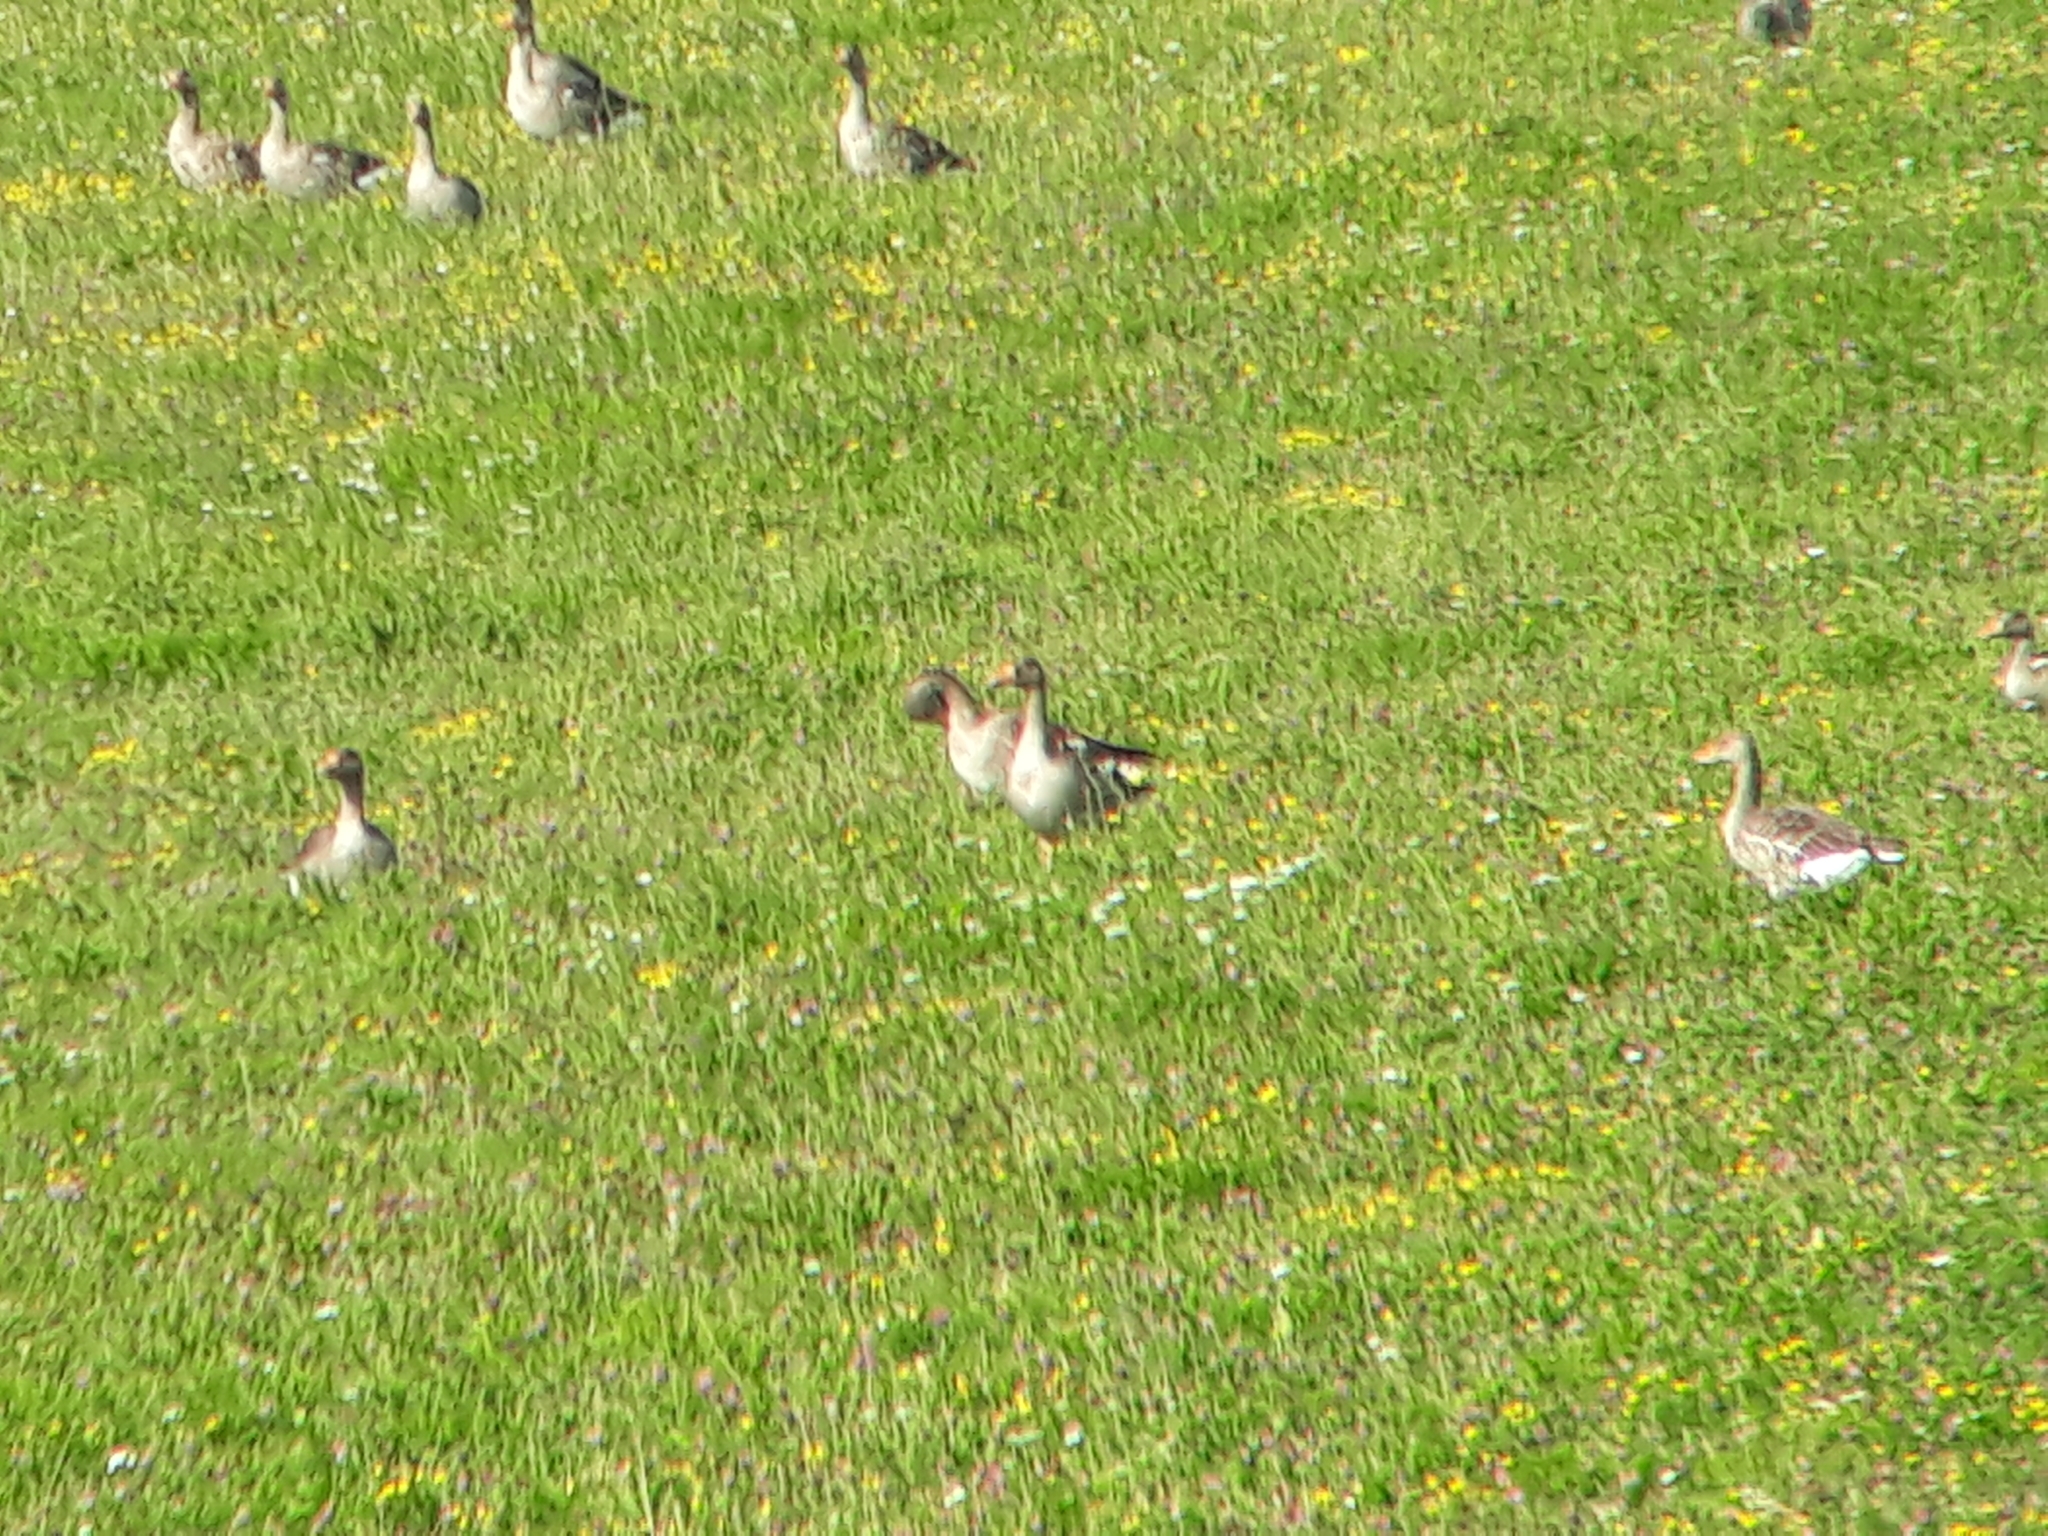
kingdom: Animalia
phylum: Chordata
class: Aves
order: Anseriformes
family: Anatidae
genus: Anser
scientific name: Anser anser
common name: Greylag goose
